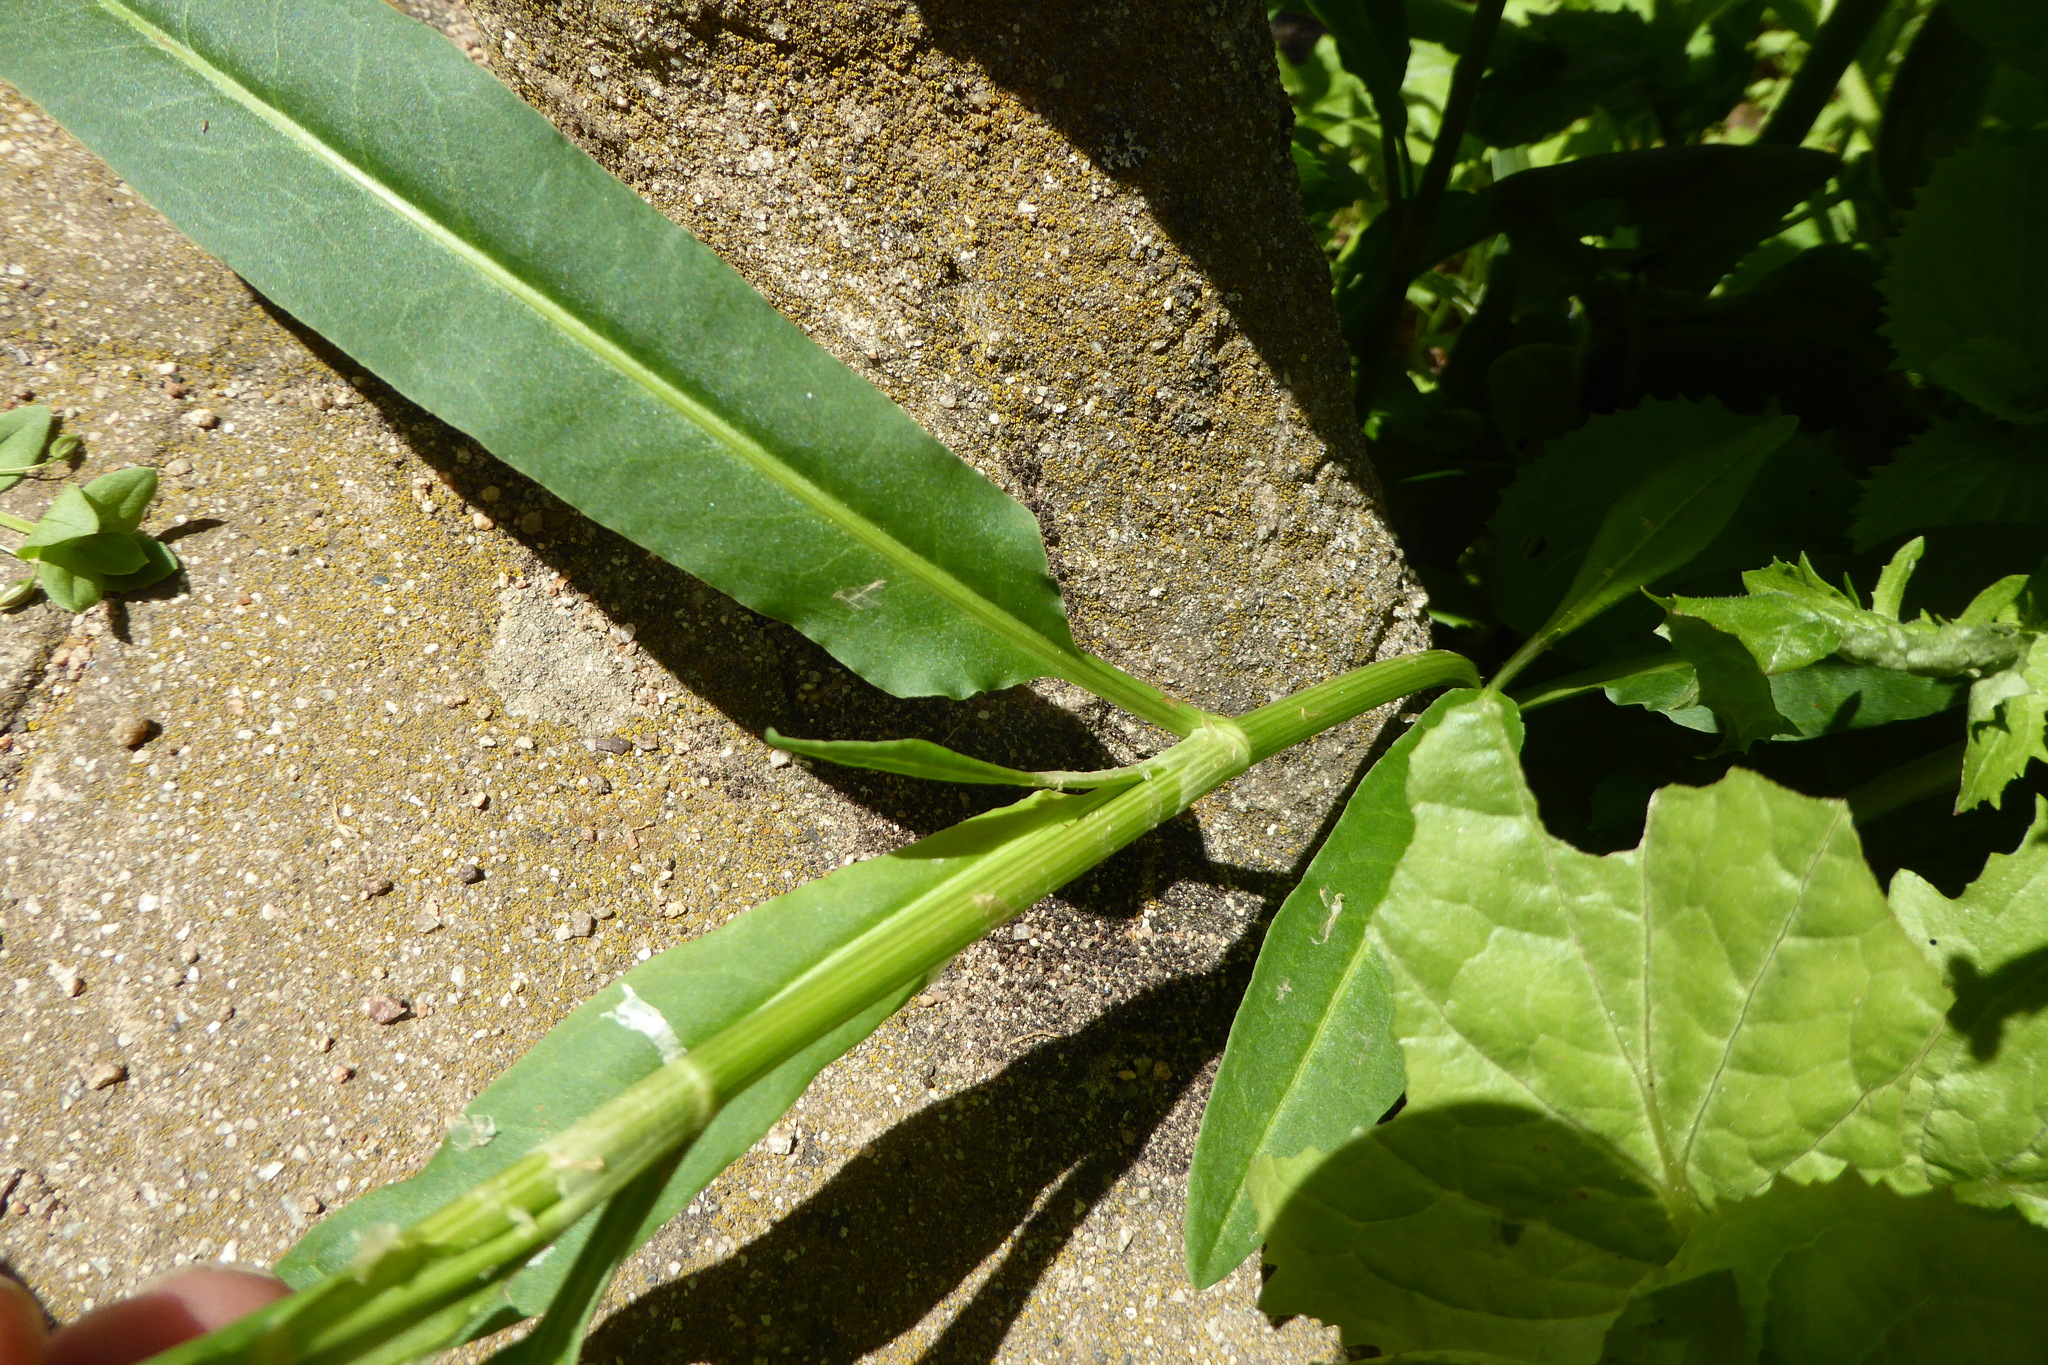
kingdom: Plantae
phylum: Tracheophyta
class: Magnoliopsida
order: Caryophyllales
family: Polygonaceae
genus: Persicaria
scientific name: Persicaria lapathifolia
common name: Curlytop knotweed
